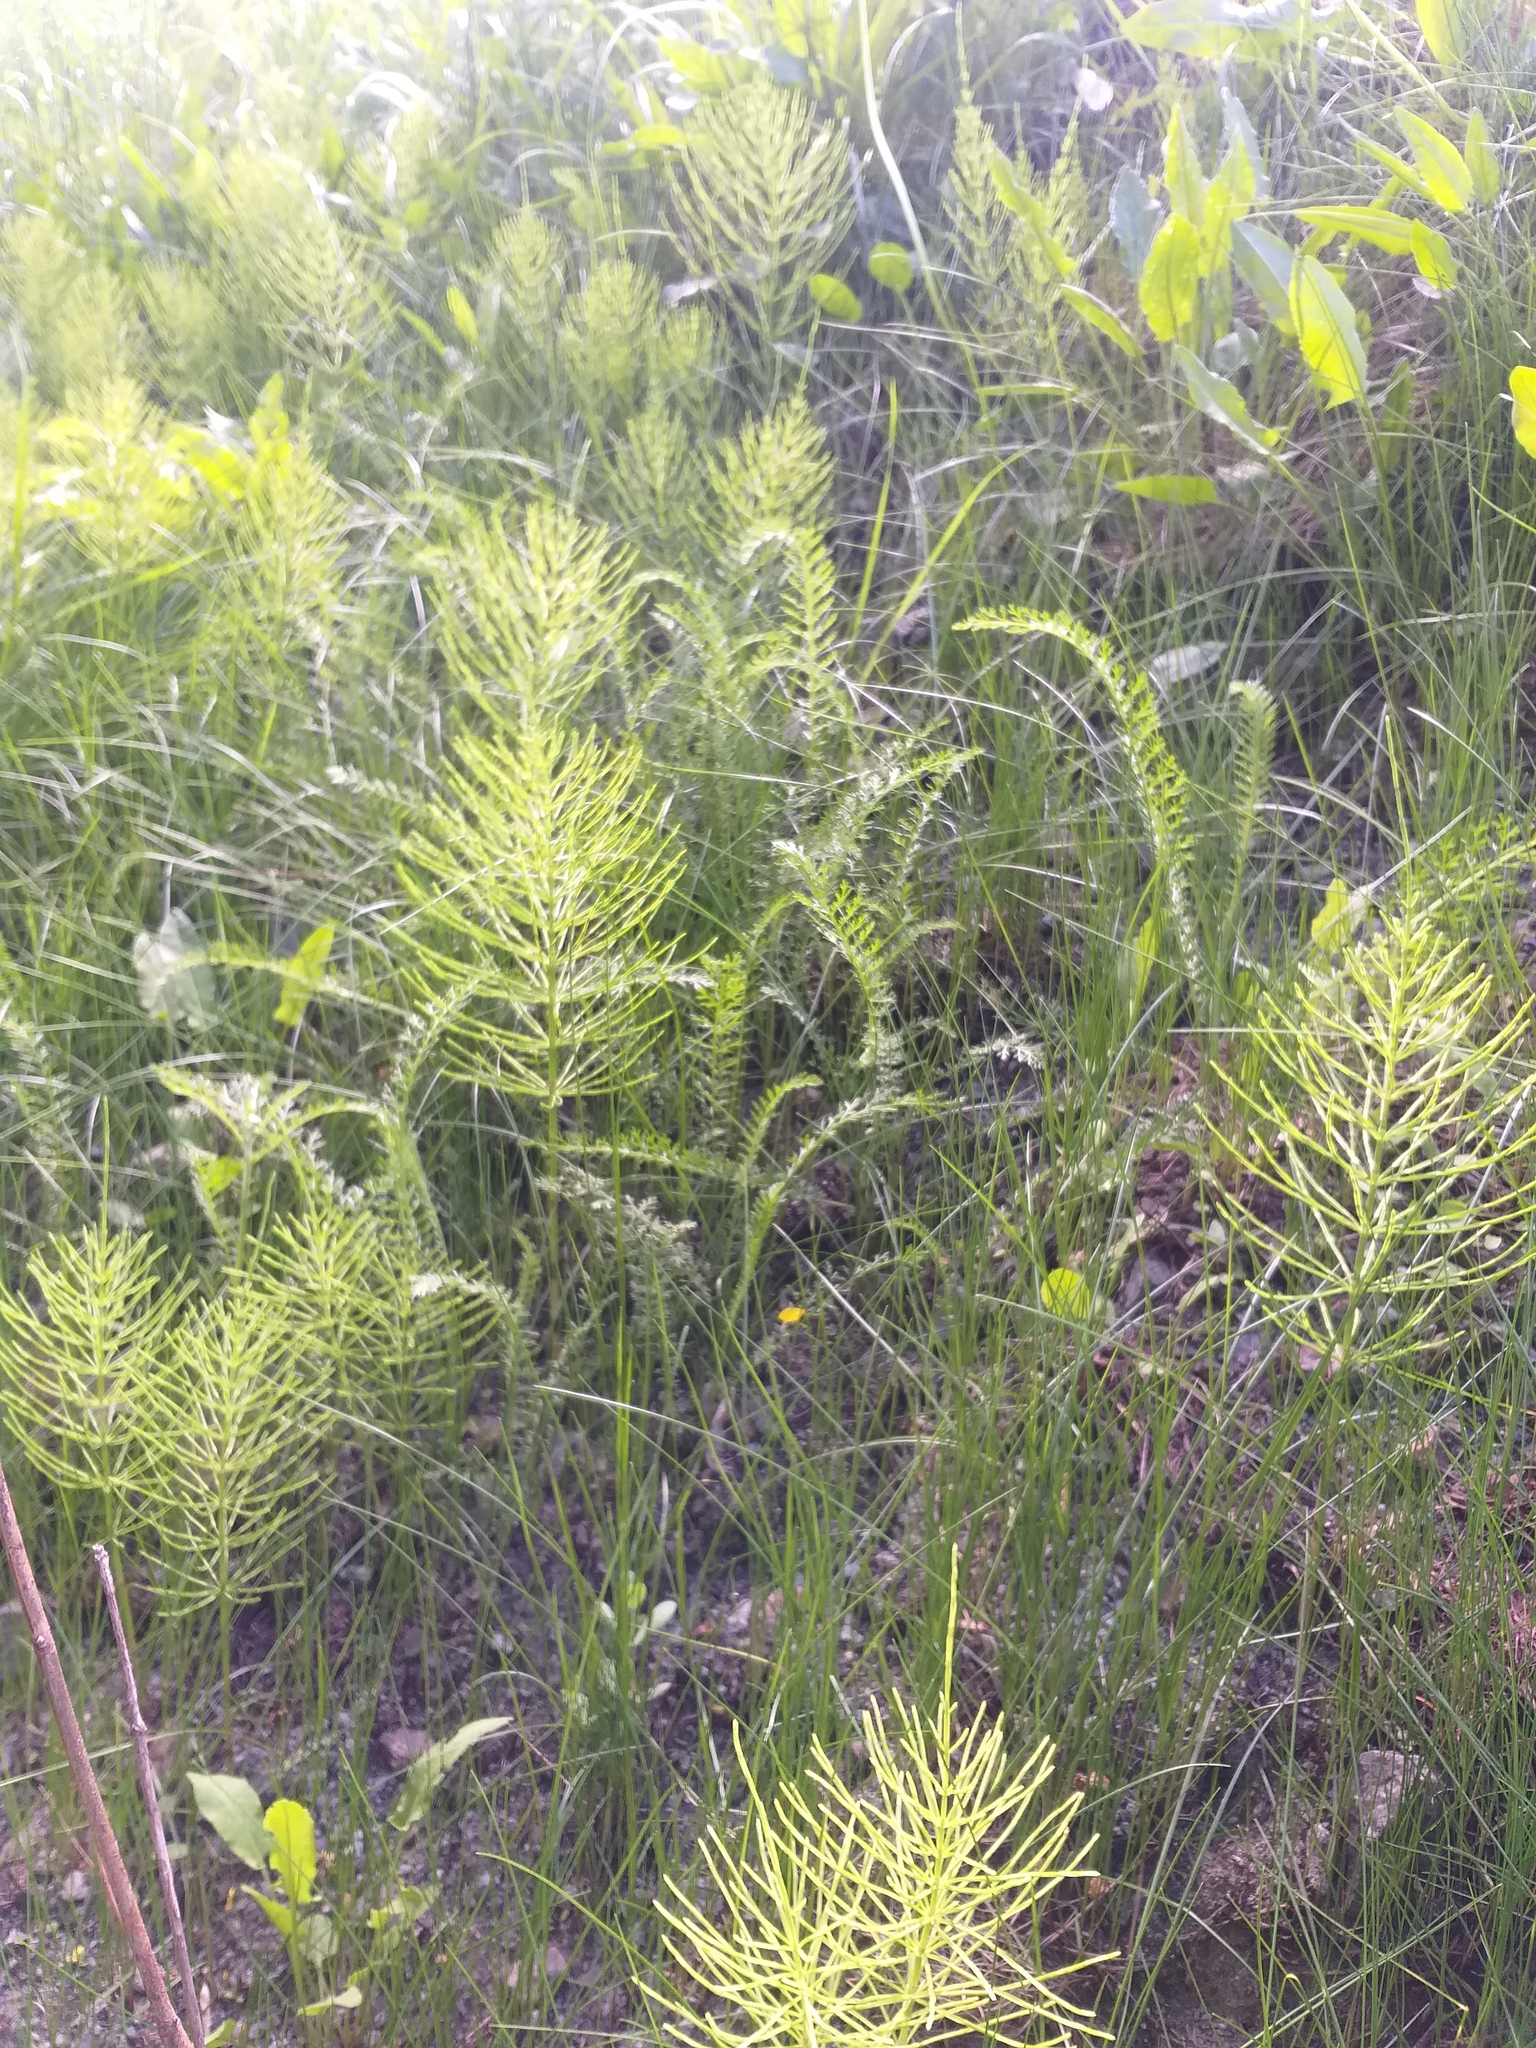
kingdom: Plantae
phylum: Tracheophyta
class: Polypodiopsida
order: Equisetales
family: Equisetaceae
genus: Equisetum
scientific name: Equisetum arvense
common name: Field horsetail
